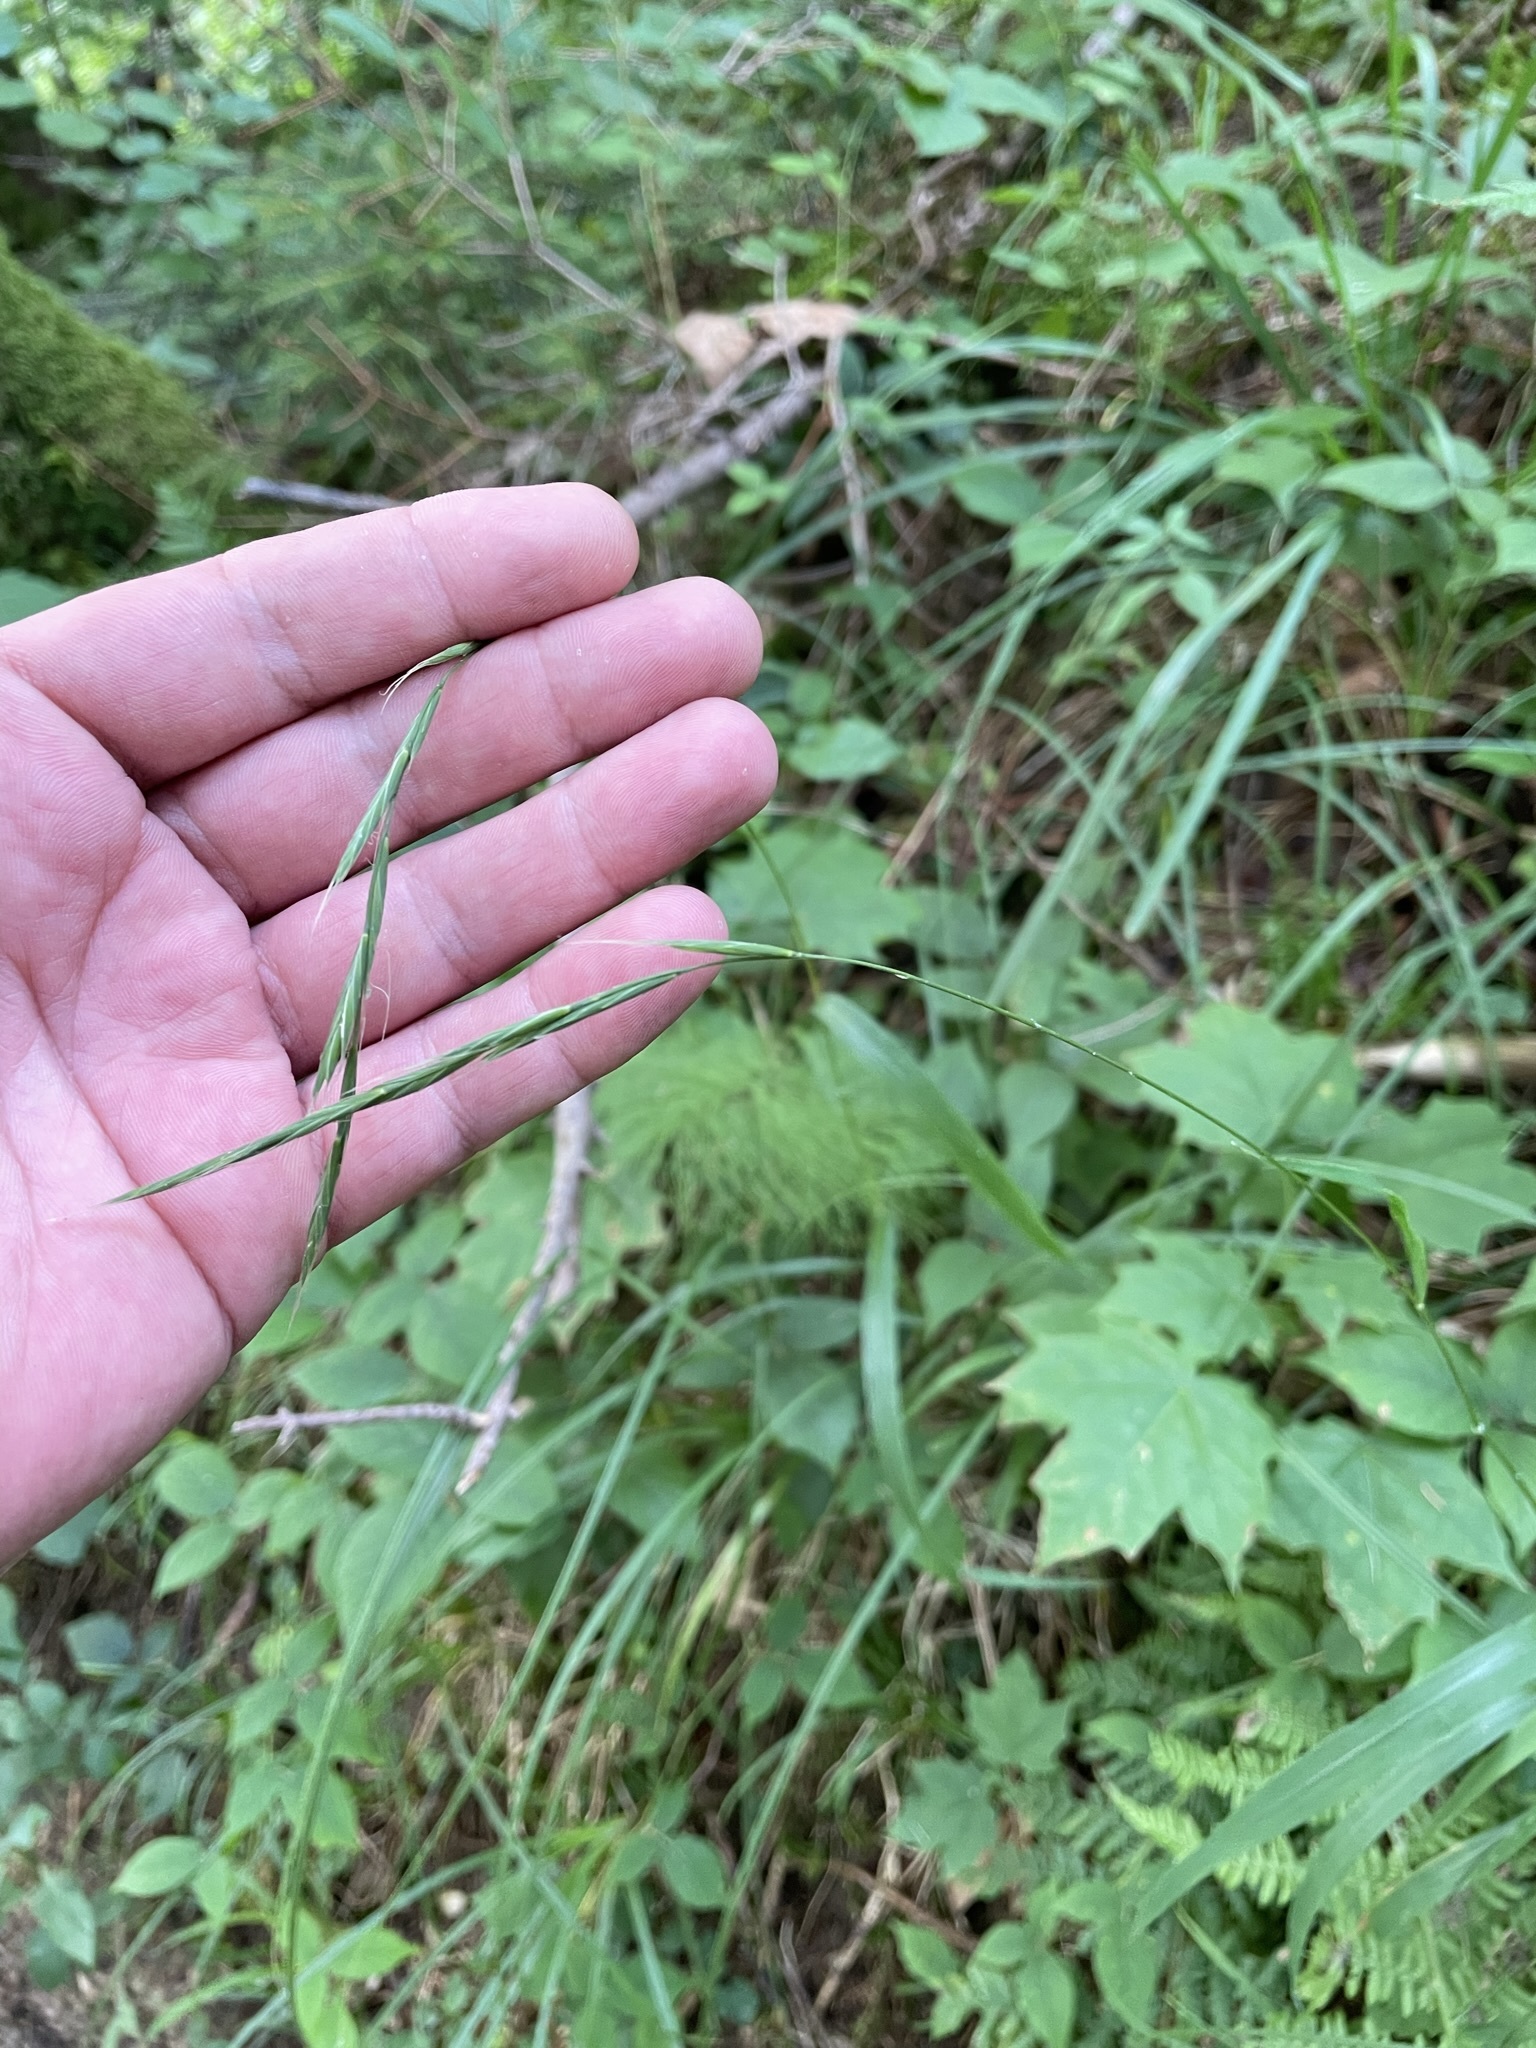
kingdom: Plantae
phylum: Tracheophyta
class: Liliopsida
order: Poales
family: Poaceae
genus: Brachypodium
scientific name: Brachypodium sylvaticum
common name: False-brome
